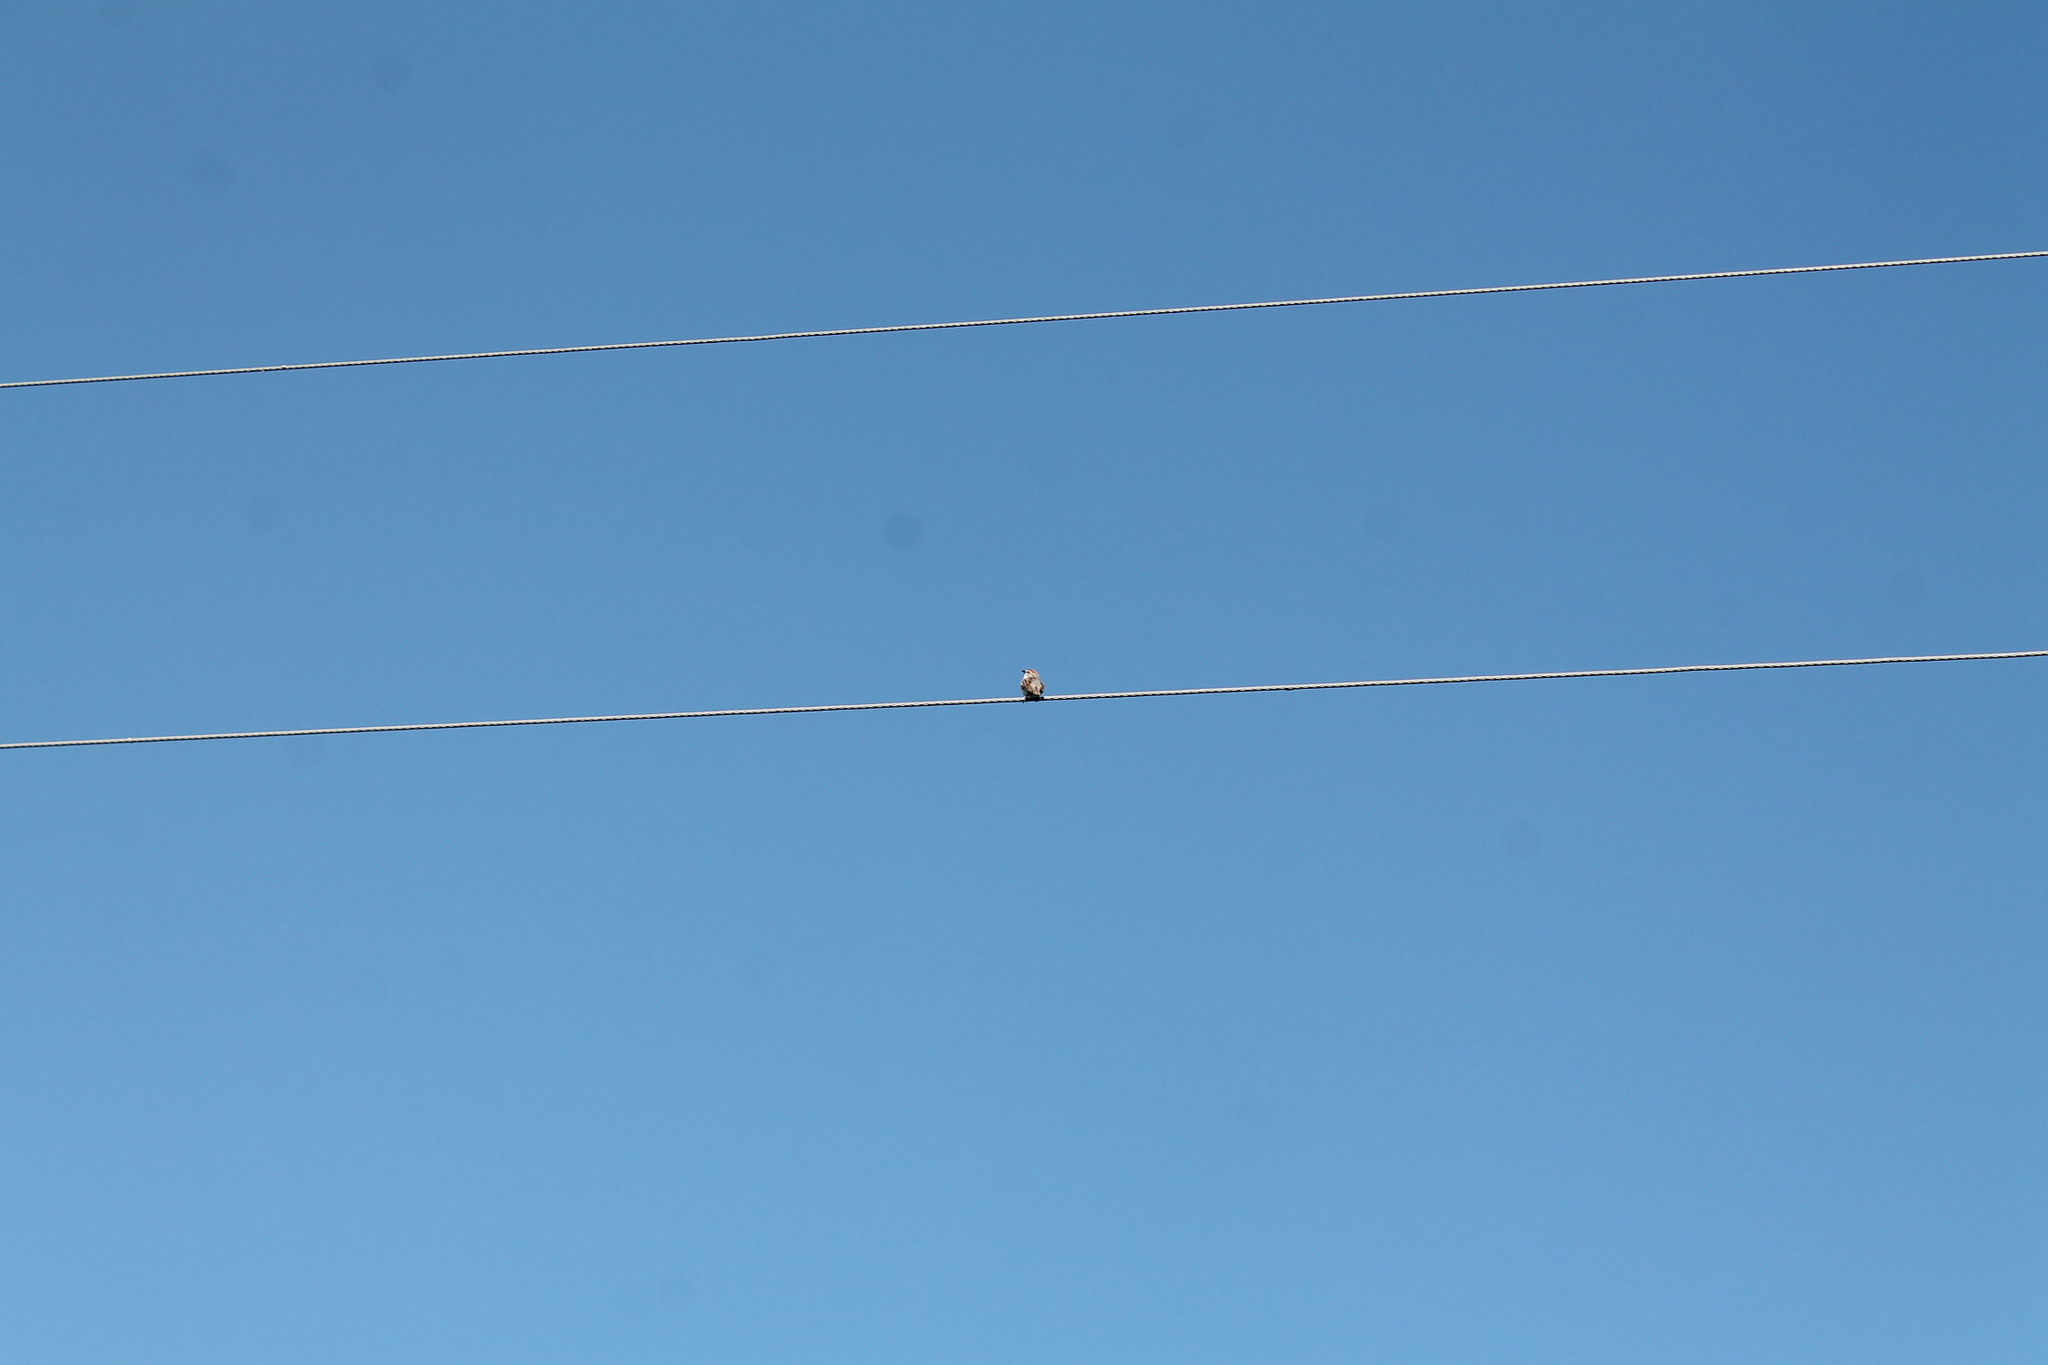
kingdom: Animalia
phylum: Chordata
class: Aves
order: Passeriformes
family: Passerellidae
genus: Spizella
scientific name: Spizella passerina
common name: Chipping sparrow
